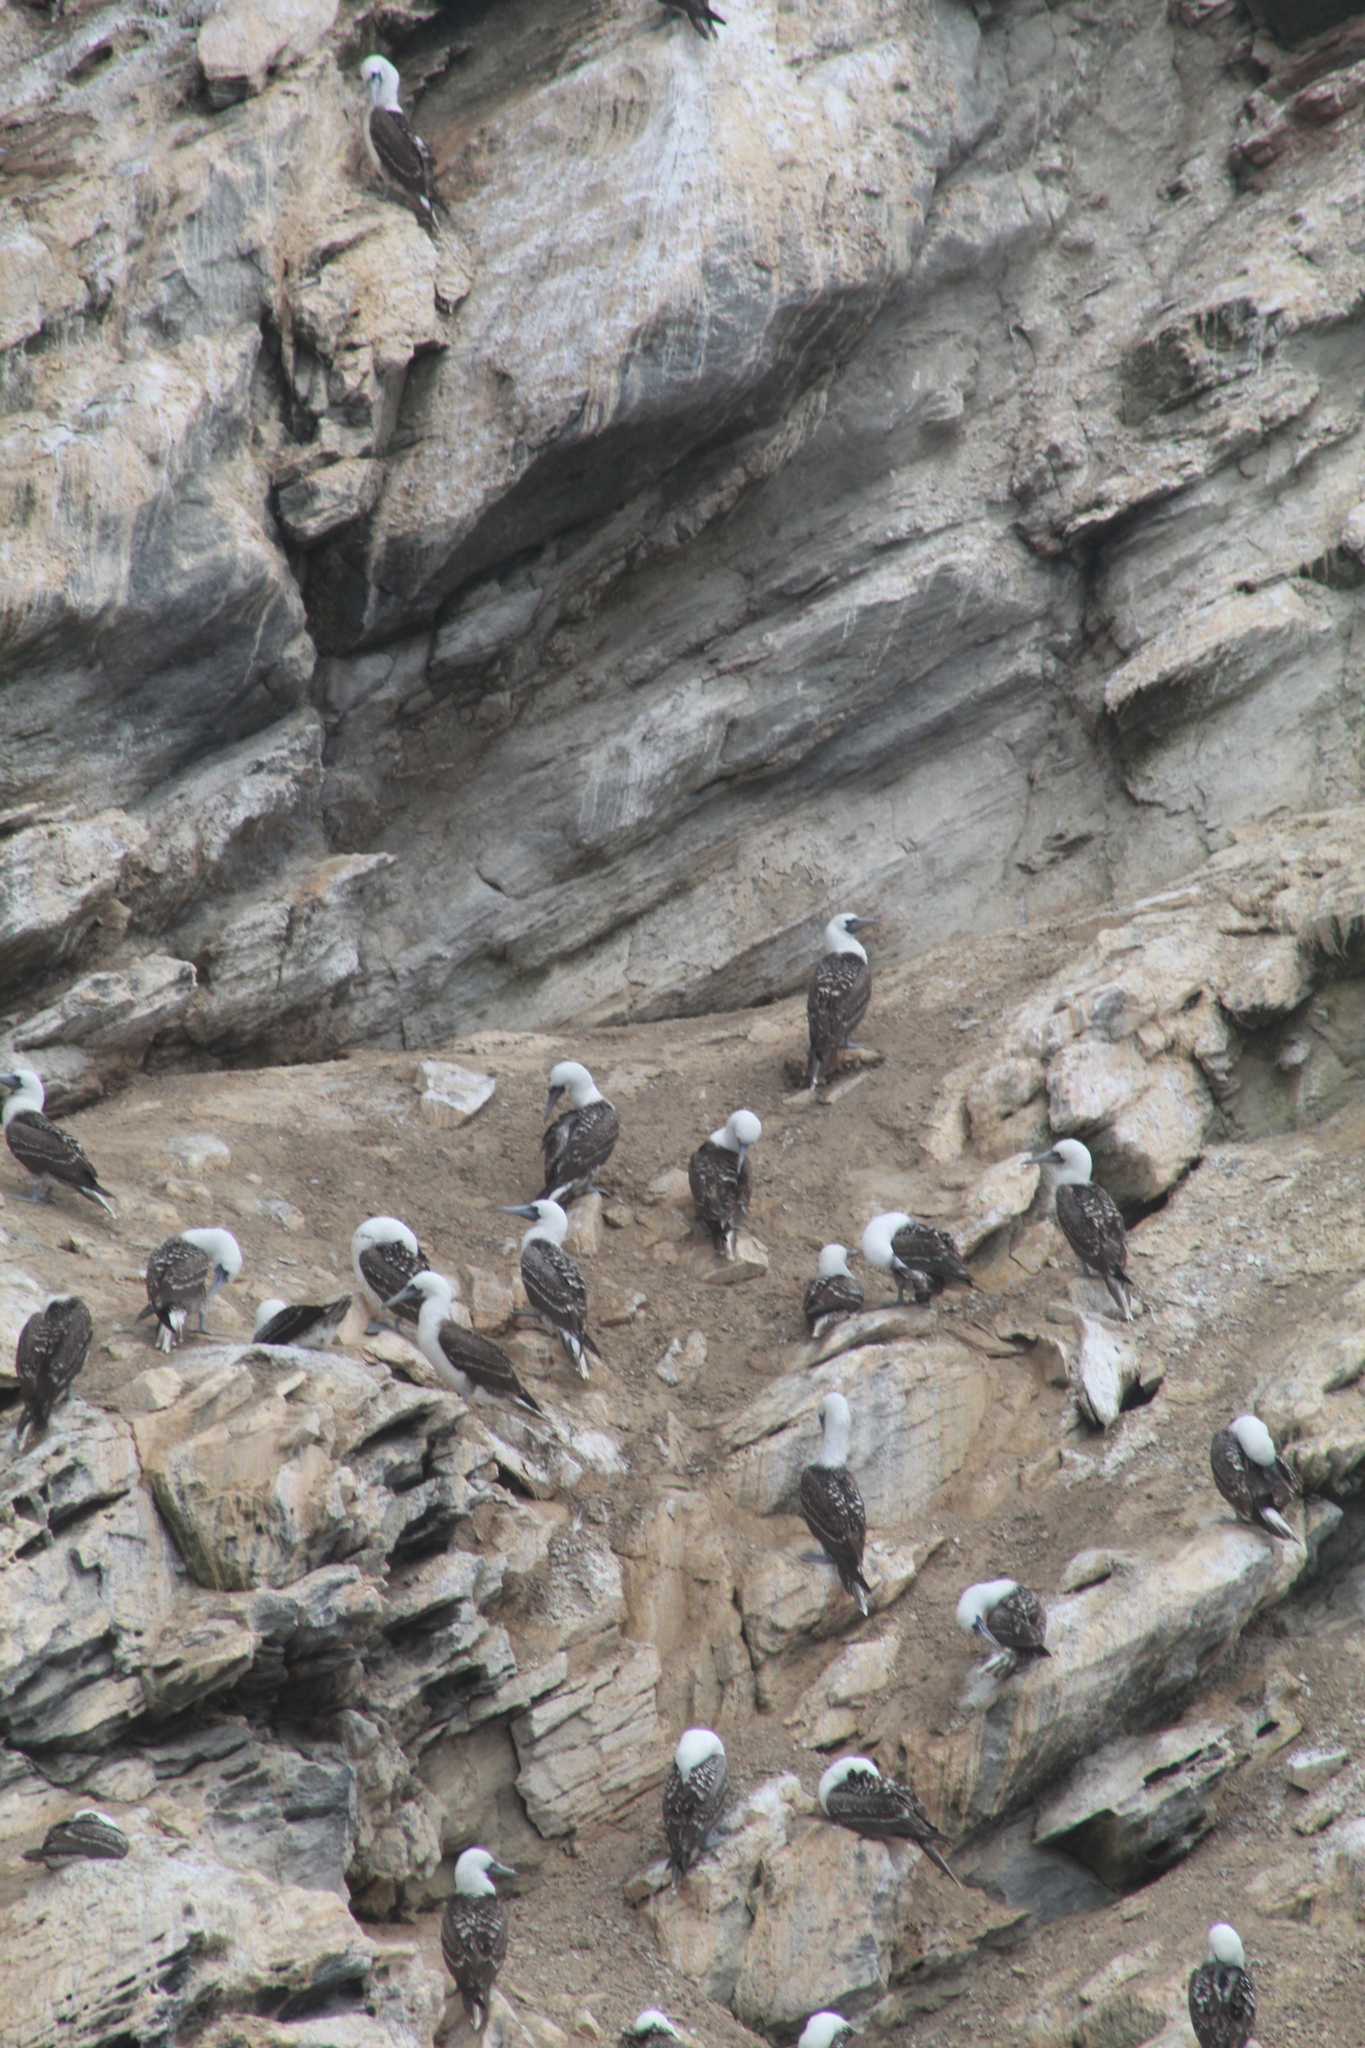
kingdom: Animalia
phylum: Chordata
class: Aves
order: Suliformes
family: Sulidae
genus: Sula
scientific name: Sula variegata
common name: Peruvian booby
